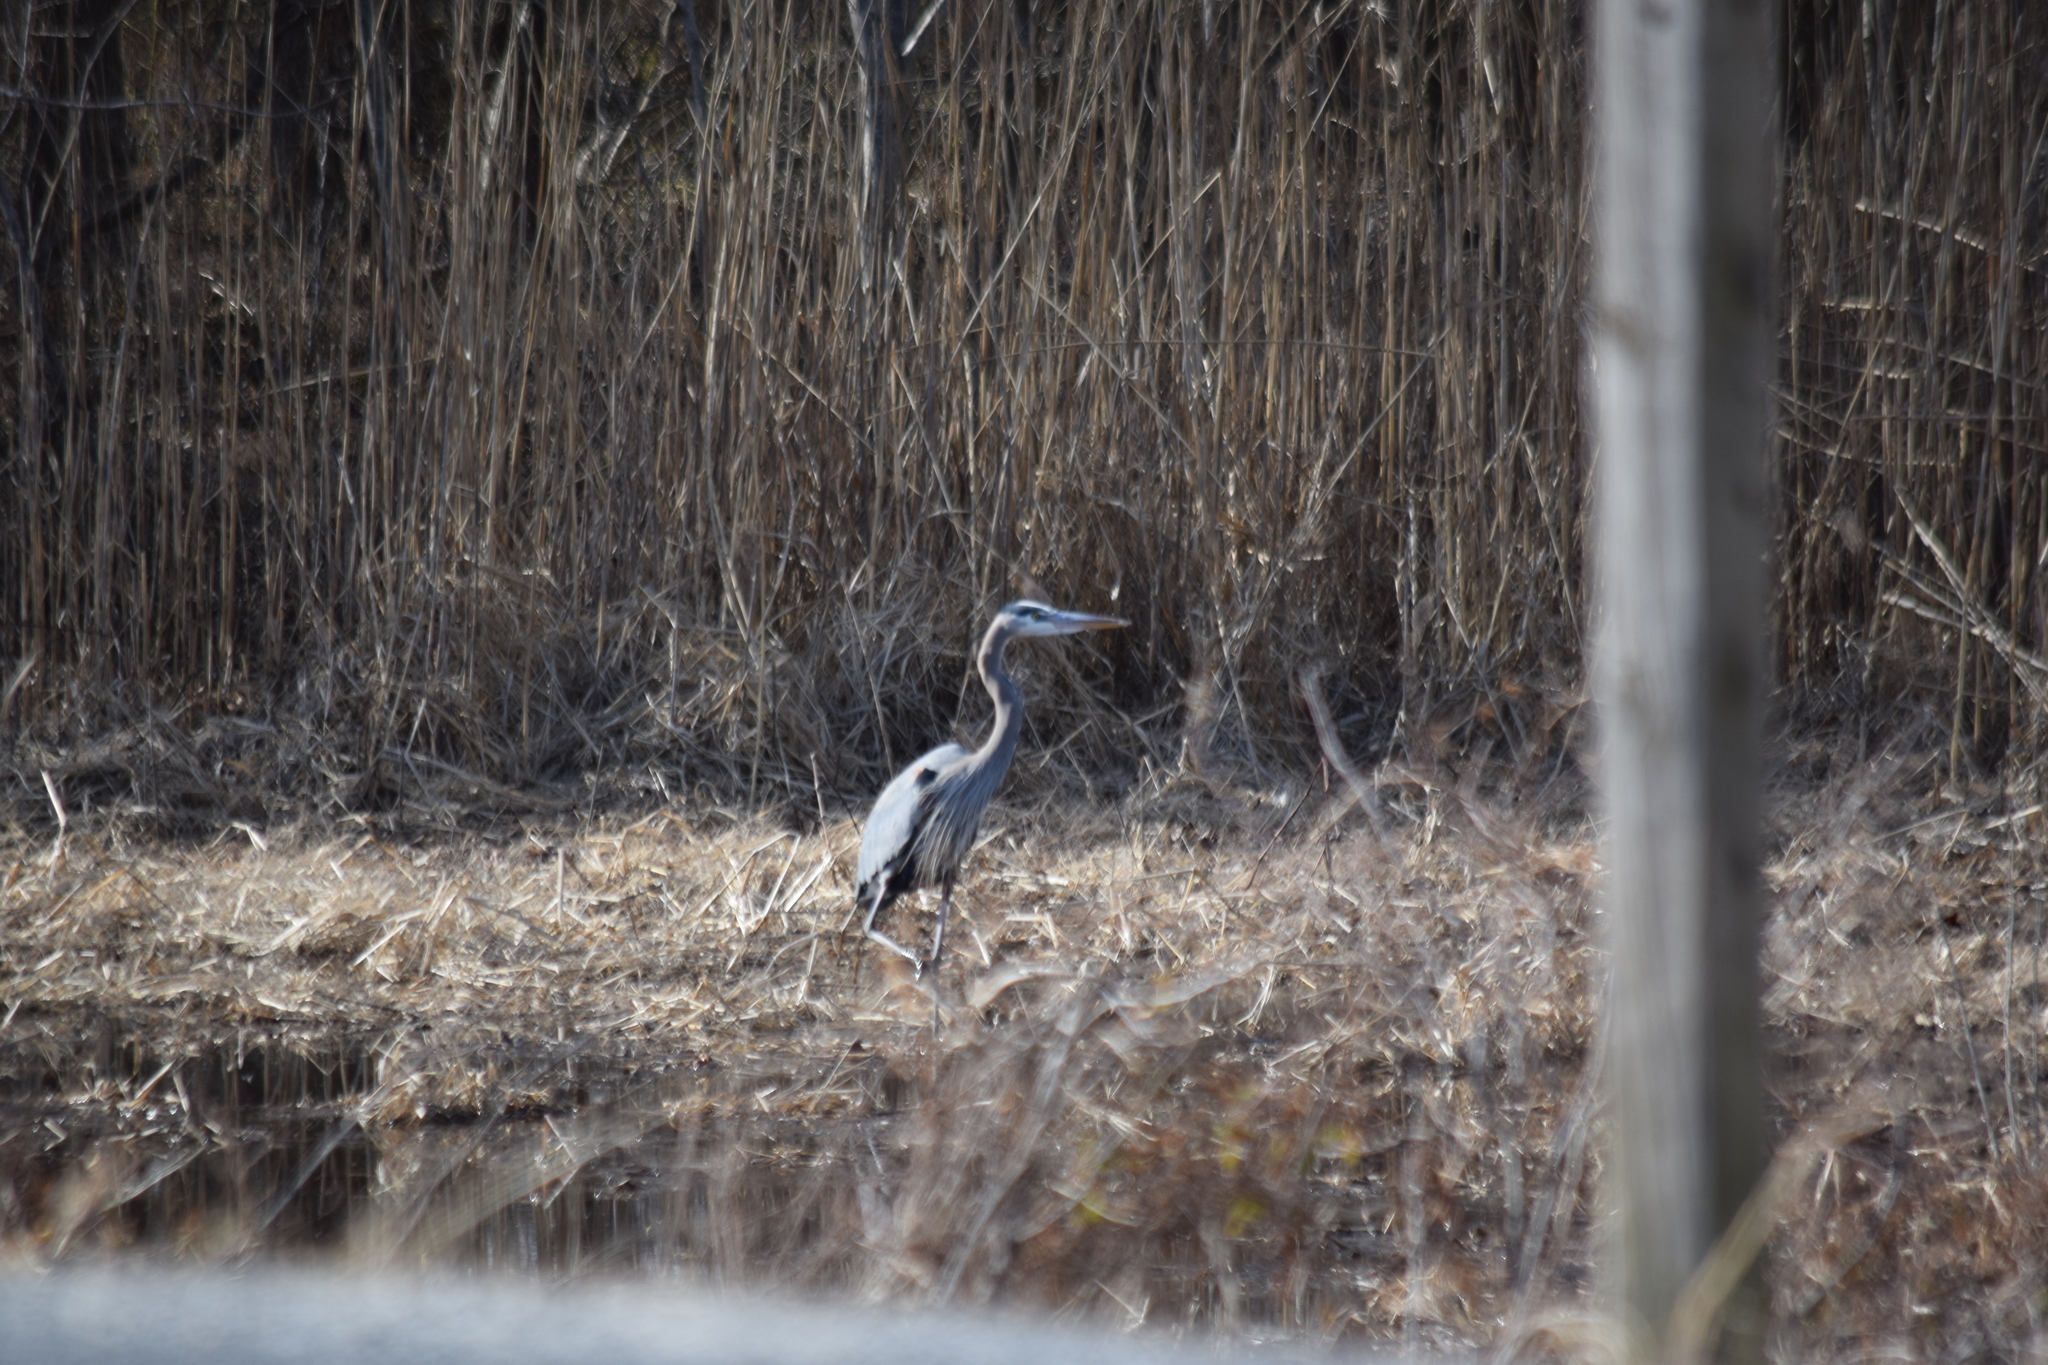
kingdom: Animalia
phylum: Chordata
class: Aves
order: Pelecaniformes
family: Ardeidae
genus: Ardea
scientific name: Ardea herodias
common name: Great blue heron
